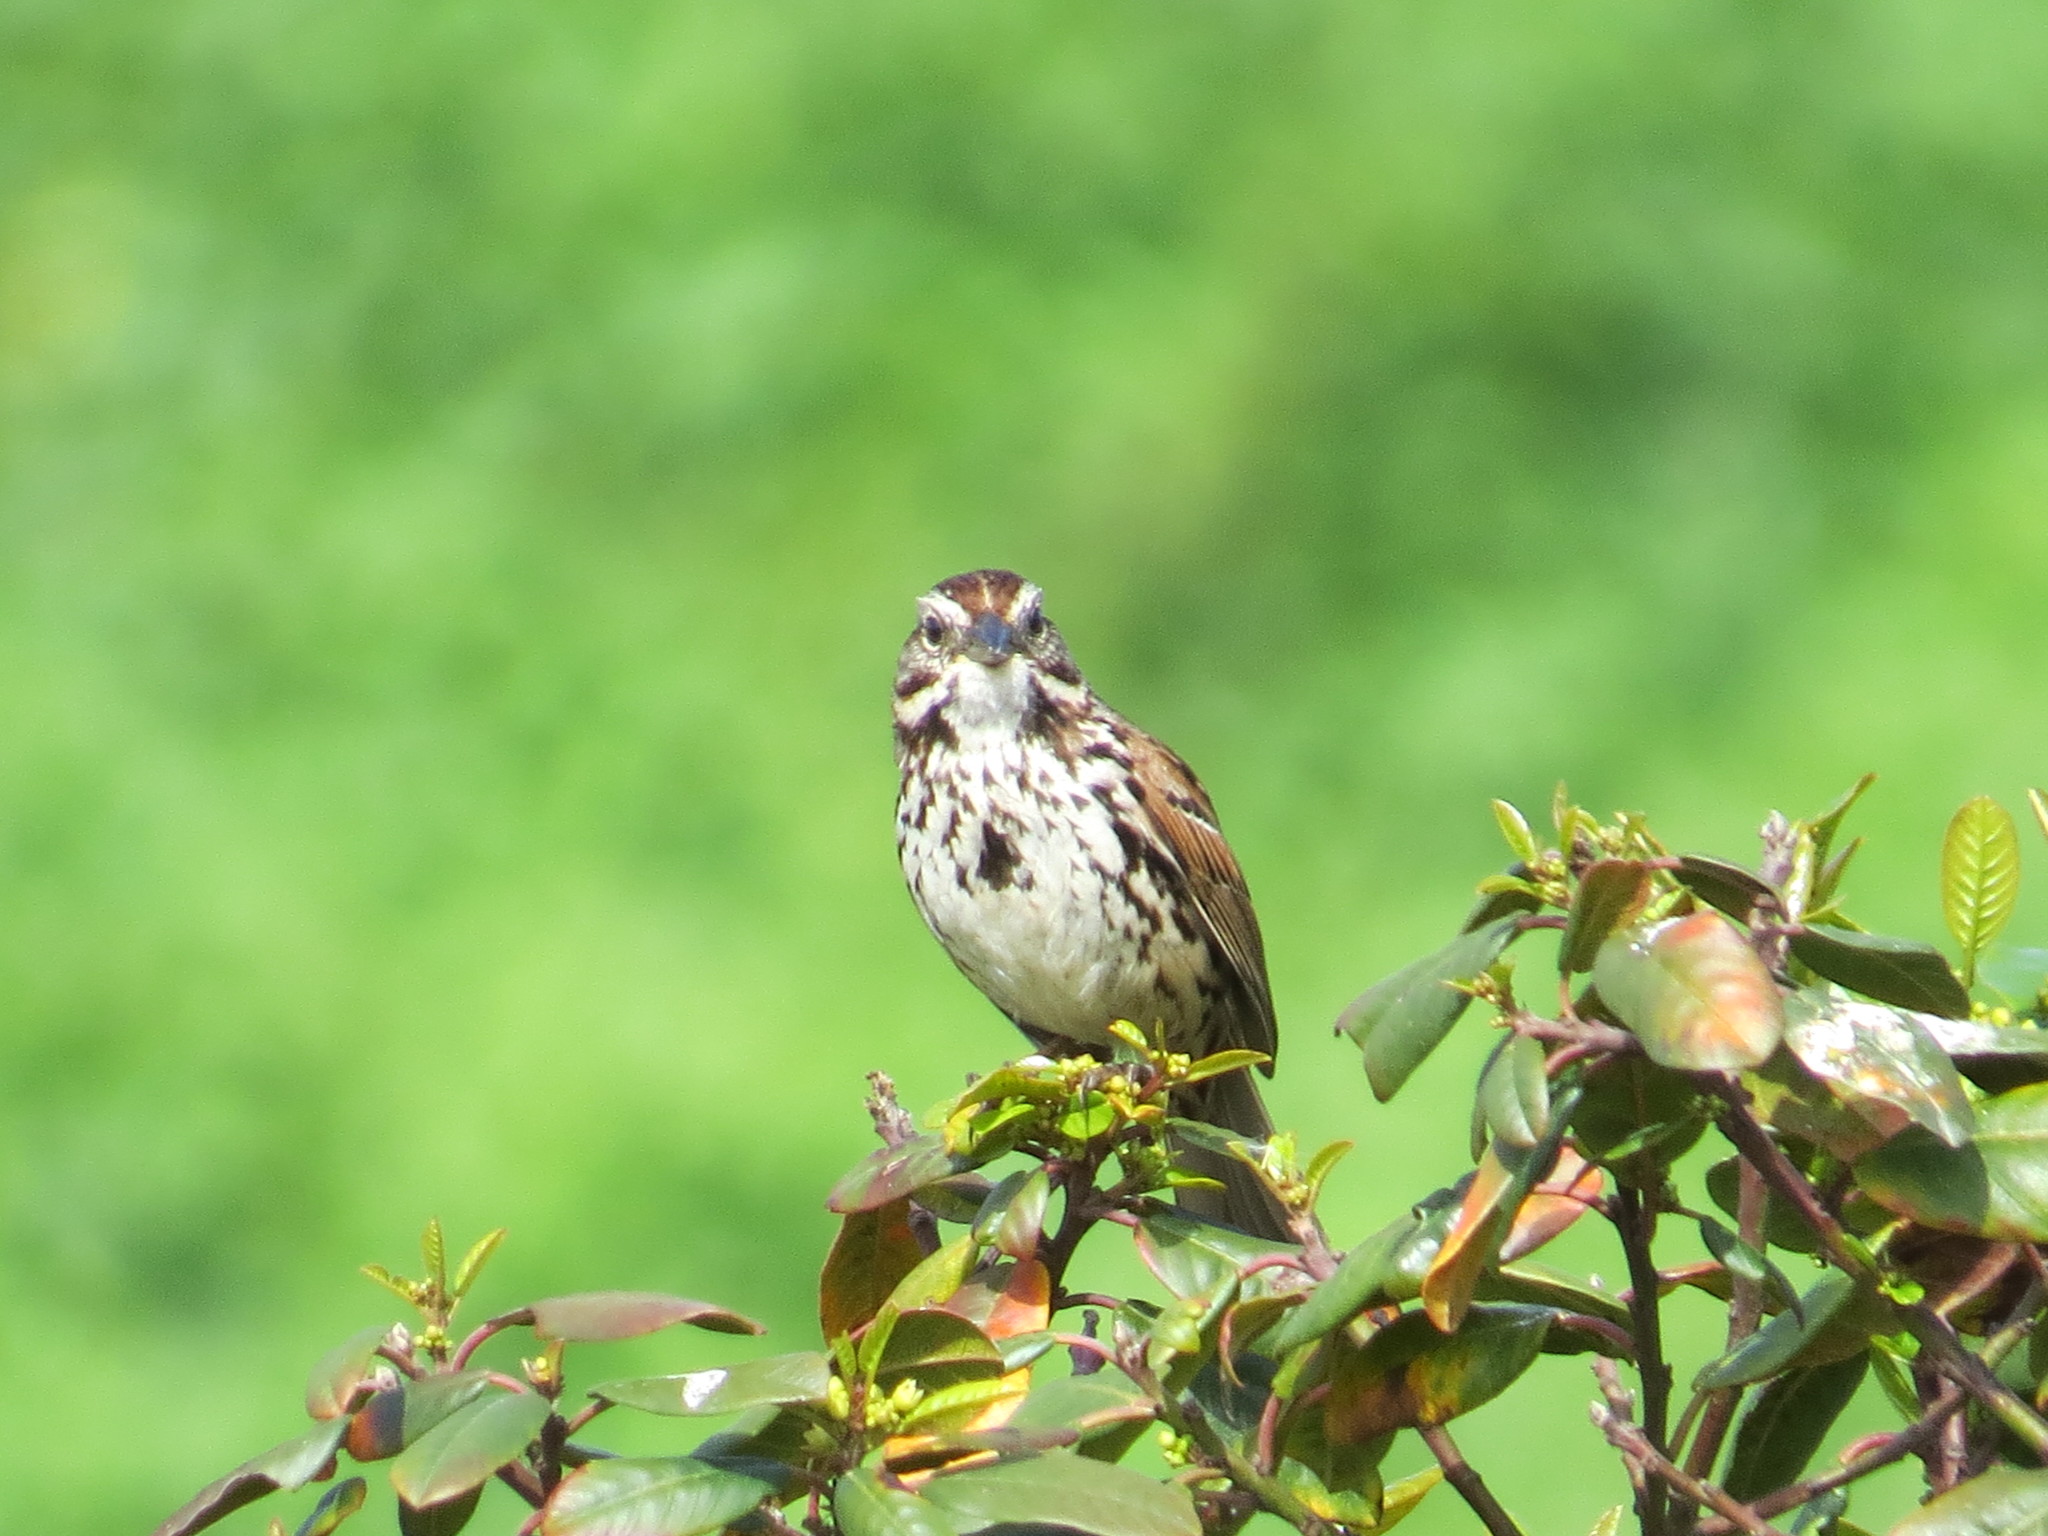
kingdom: Animalia
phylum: Chordata
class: Aves
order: Passeriformes
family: Passerellidae
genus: Melospiza
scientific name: Melospiza melodia
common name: Song sparrow
